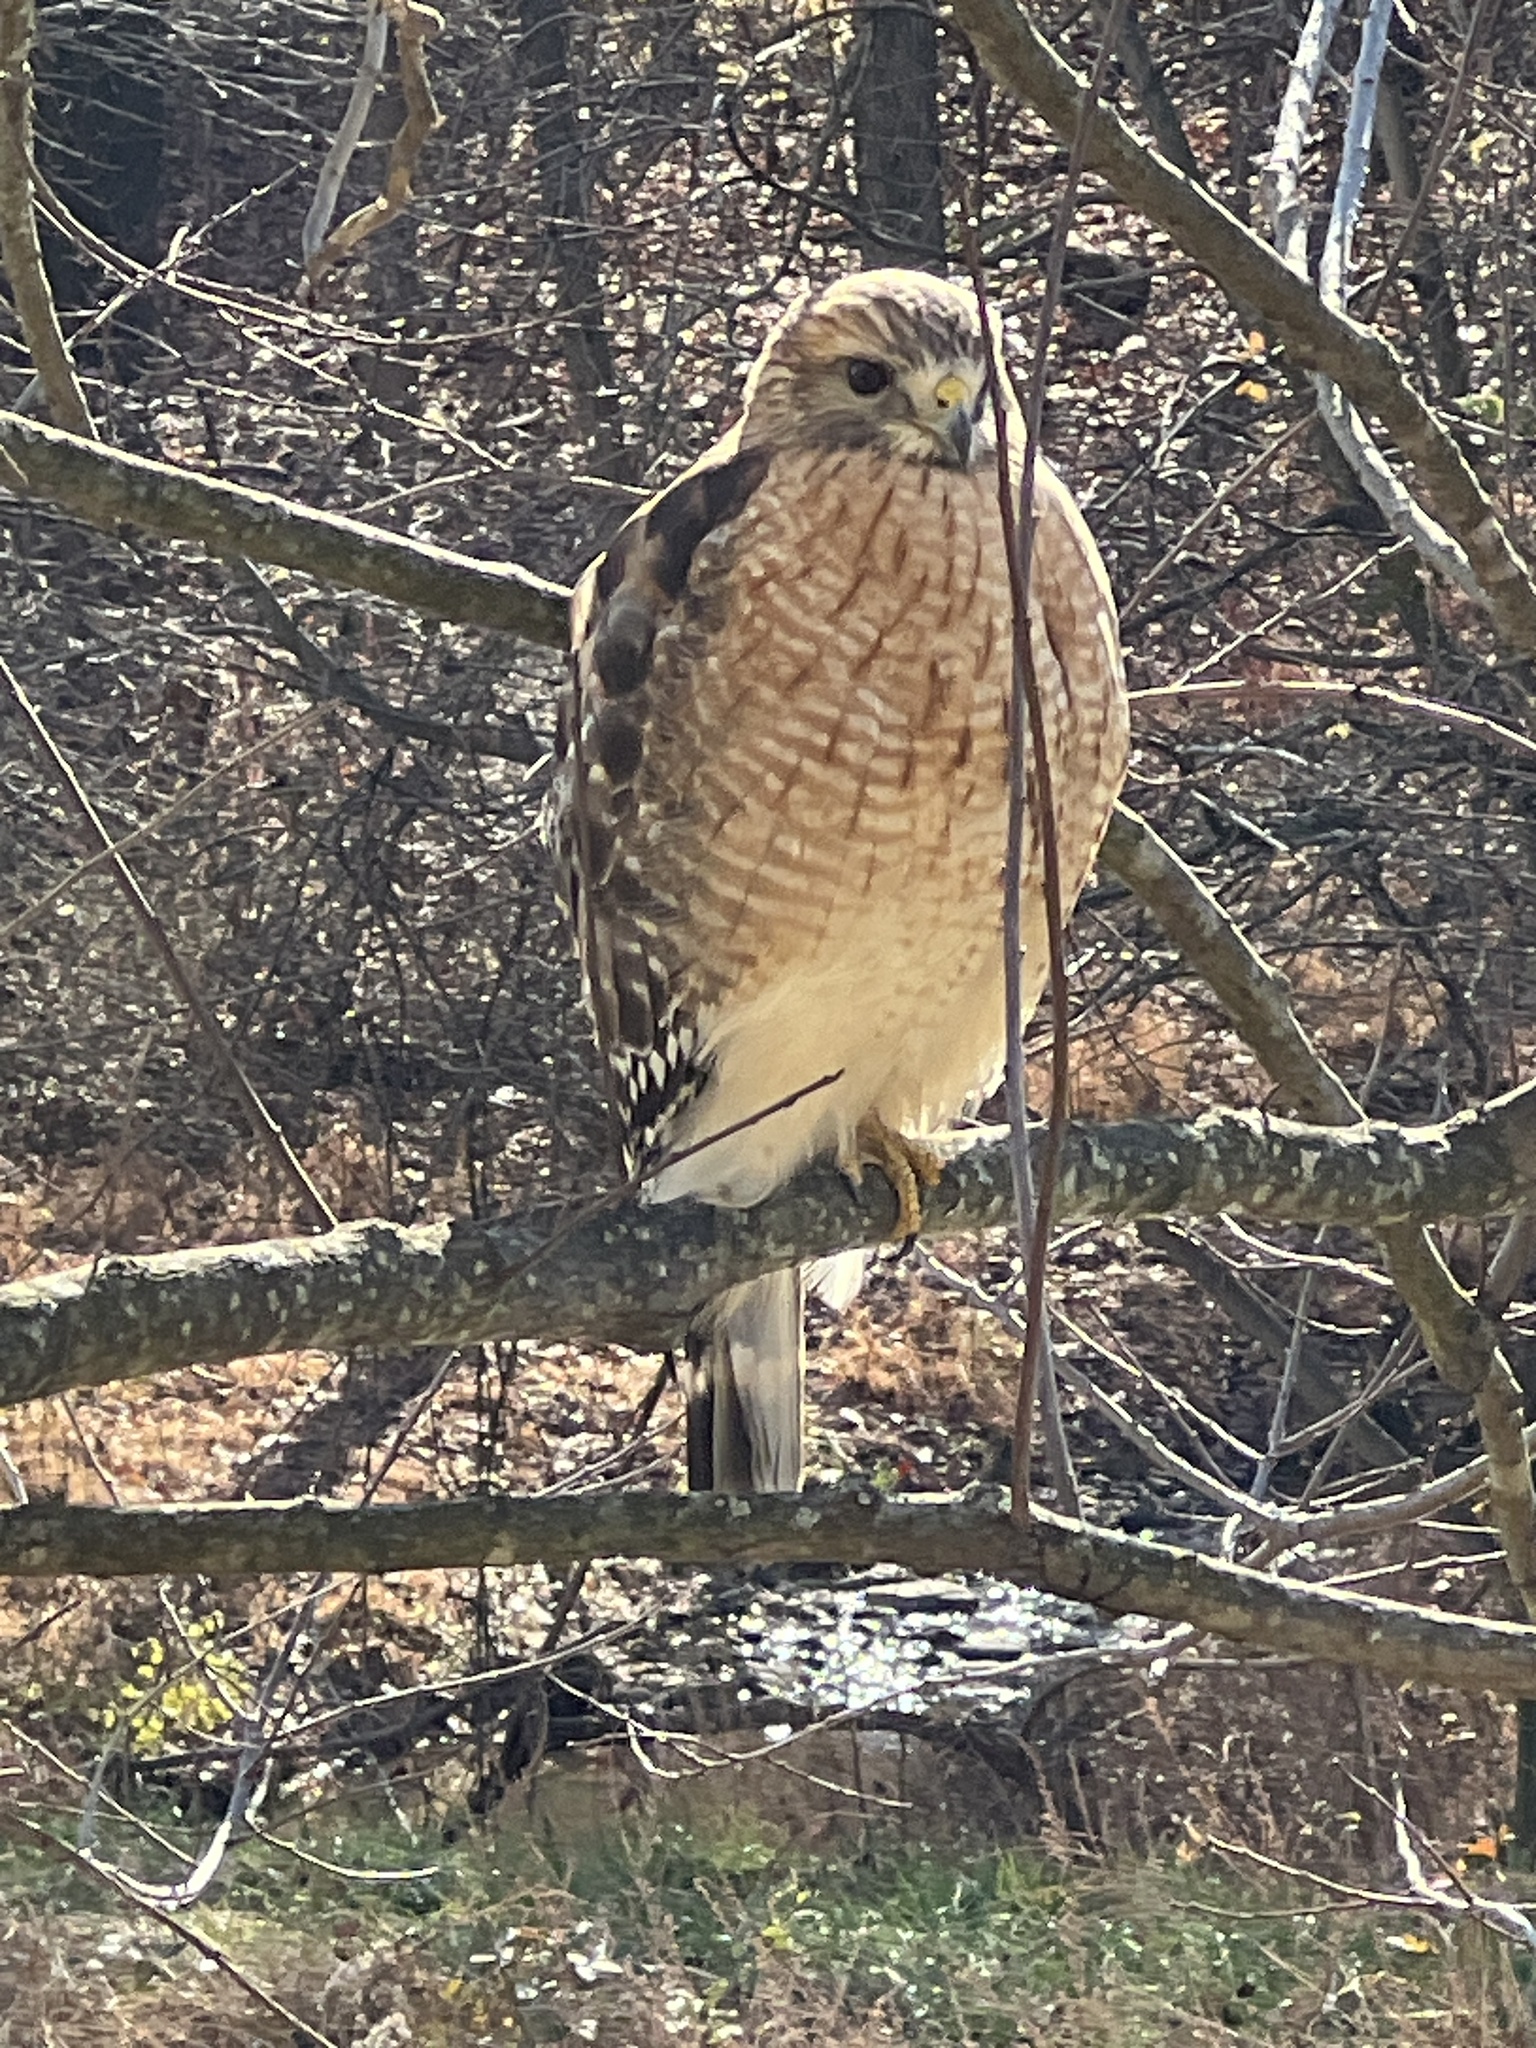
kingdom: Animalia
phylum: Chordata
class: Aves
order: Accipitriformes
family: Accipitridae
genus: Buteo
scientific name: Buteo lineatus
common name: Red-shouldered hawk
